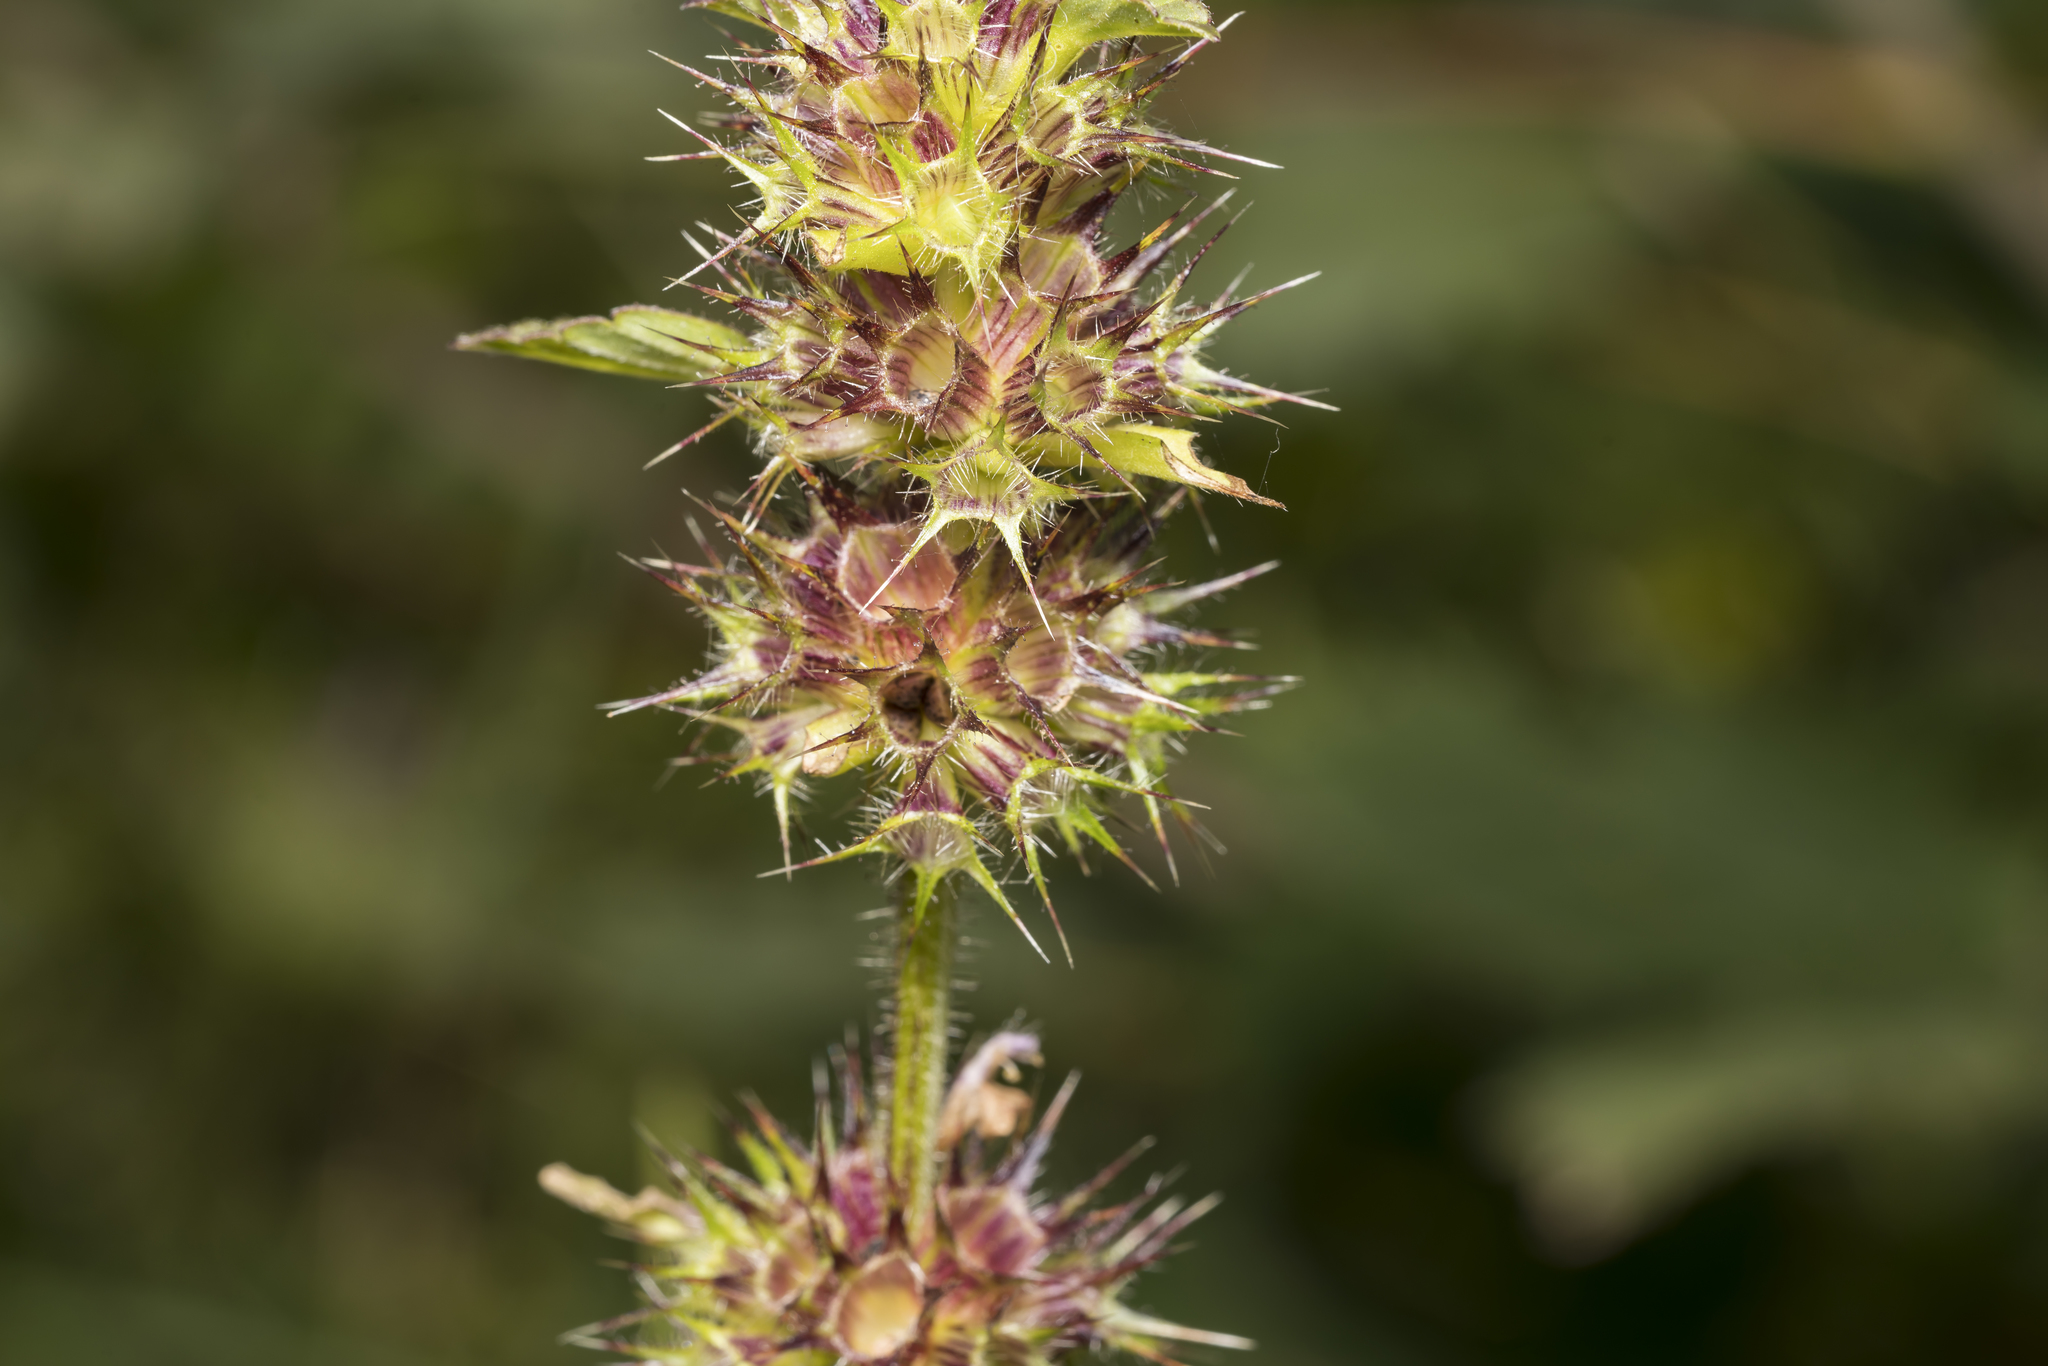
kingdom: Plantae
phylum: Tracheophyta
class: Magnoliopsida
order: Lamiales
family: Lamiaceae
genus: Galeopsis
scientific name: Galeopsis tetrahit
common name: Common hemp-nettle
